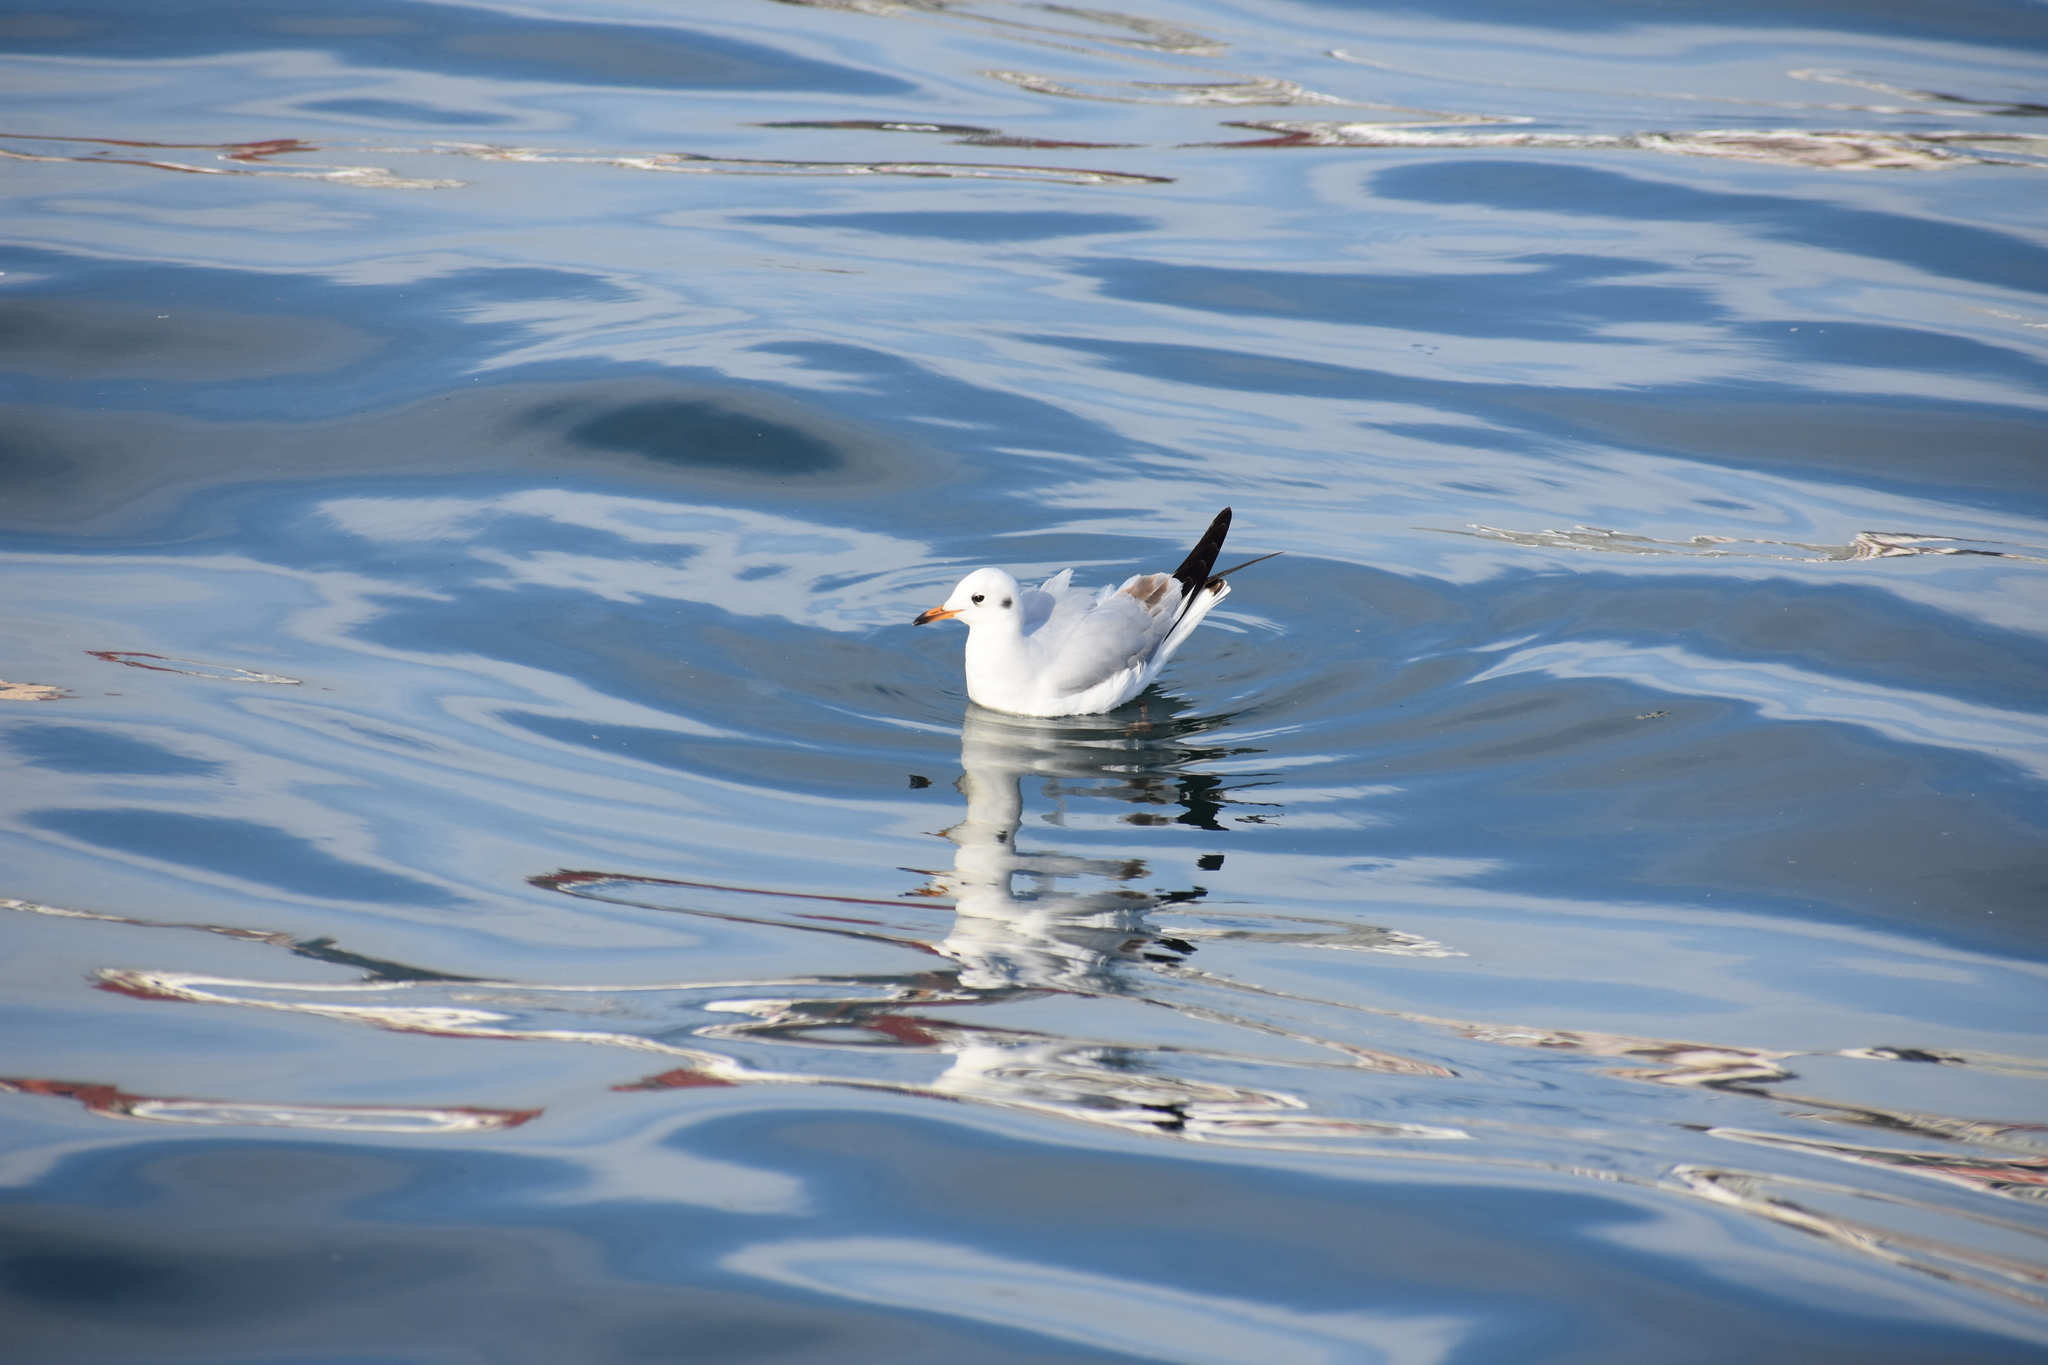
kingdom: Animalia
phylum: Chordata
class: Aves
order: Charadriiformes
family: Laridae
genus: Chroicocephalus
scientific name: Chroicocephalus ridibundus
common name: Black-headed gull
